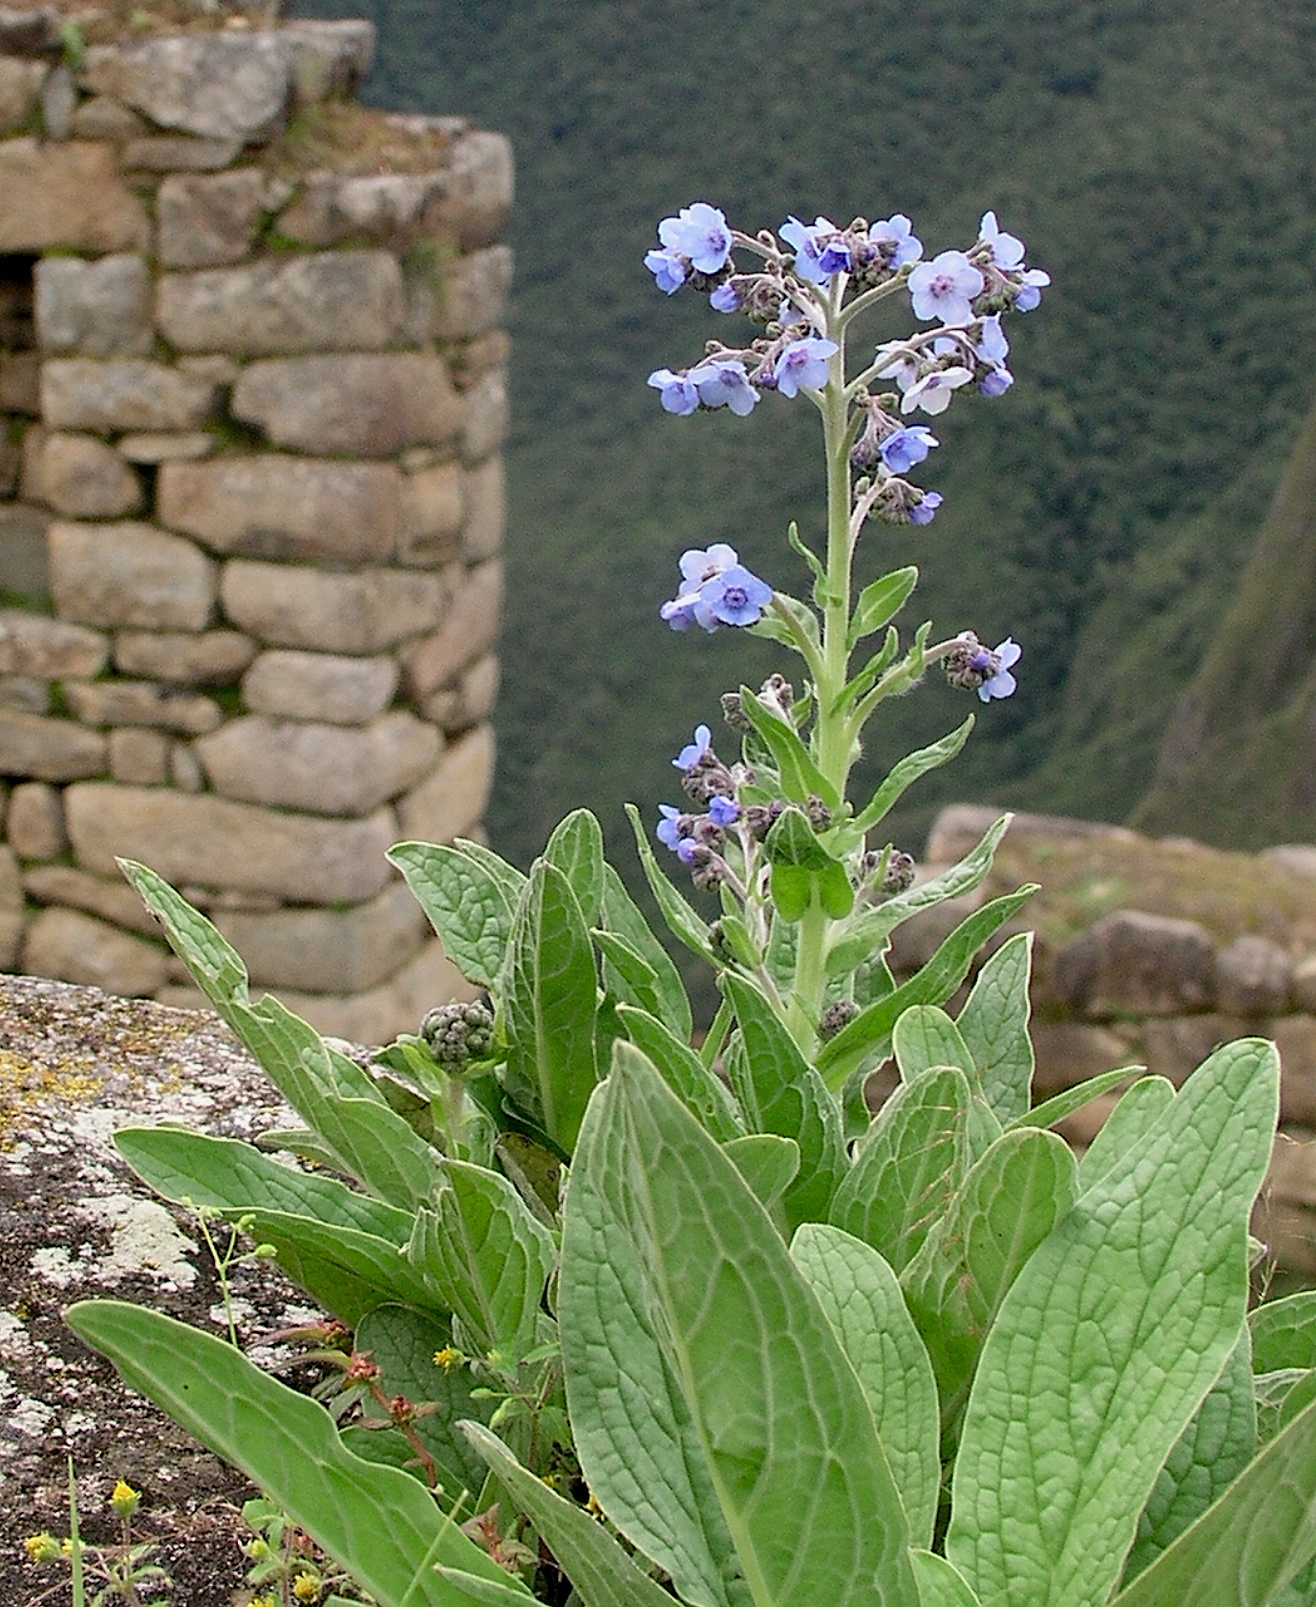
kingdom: Plantae
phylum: Tracheophyta
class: Magnoliopsida
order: Boraginales
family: Boraginaceae
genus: Cynoglossum
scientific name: Cynoglossum amabile
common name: Chinese hound's tongue
